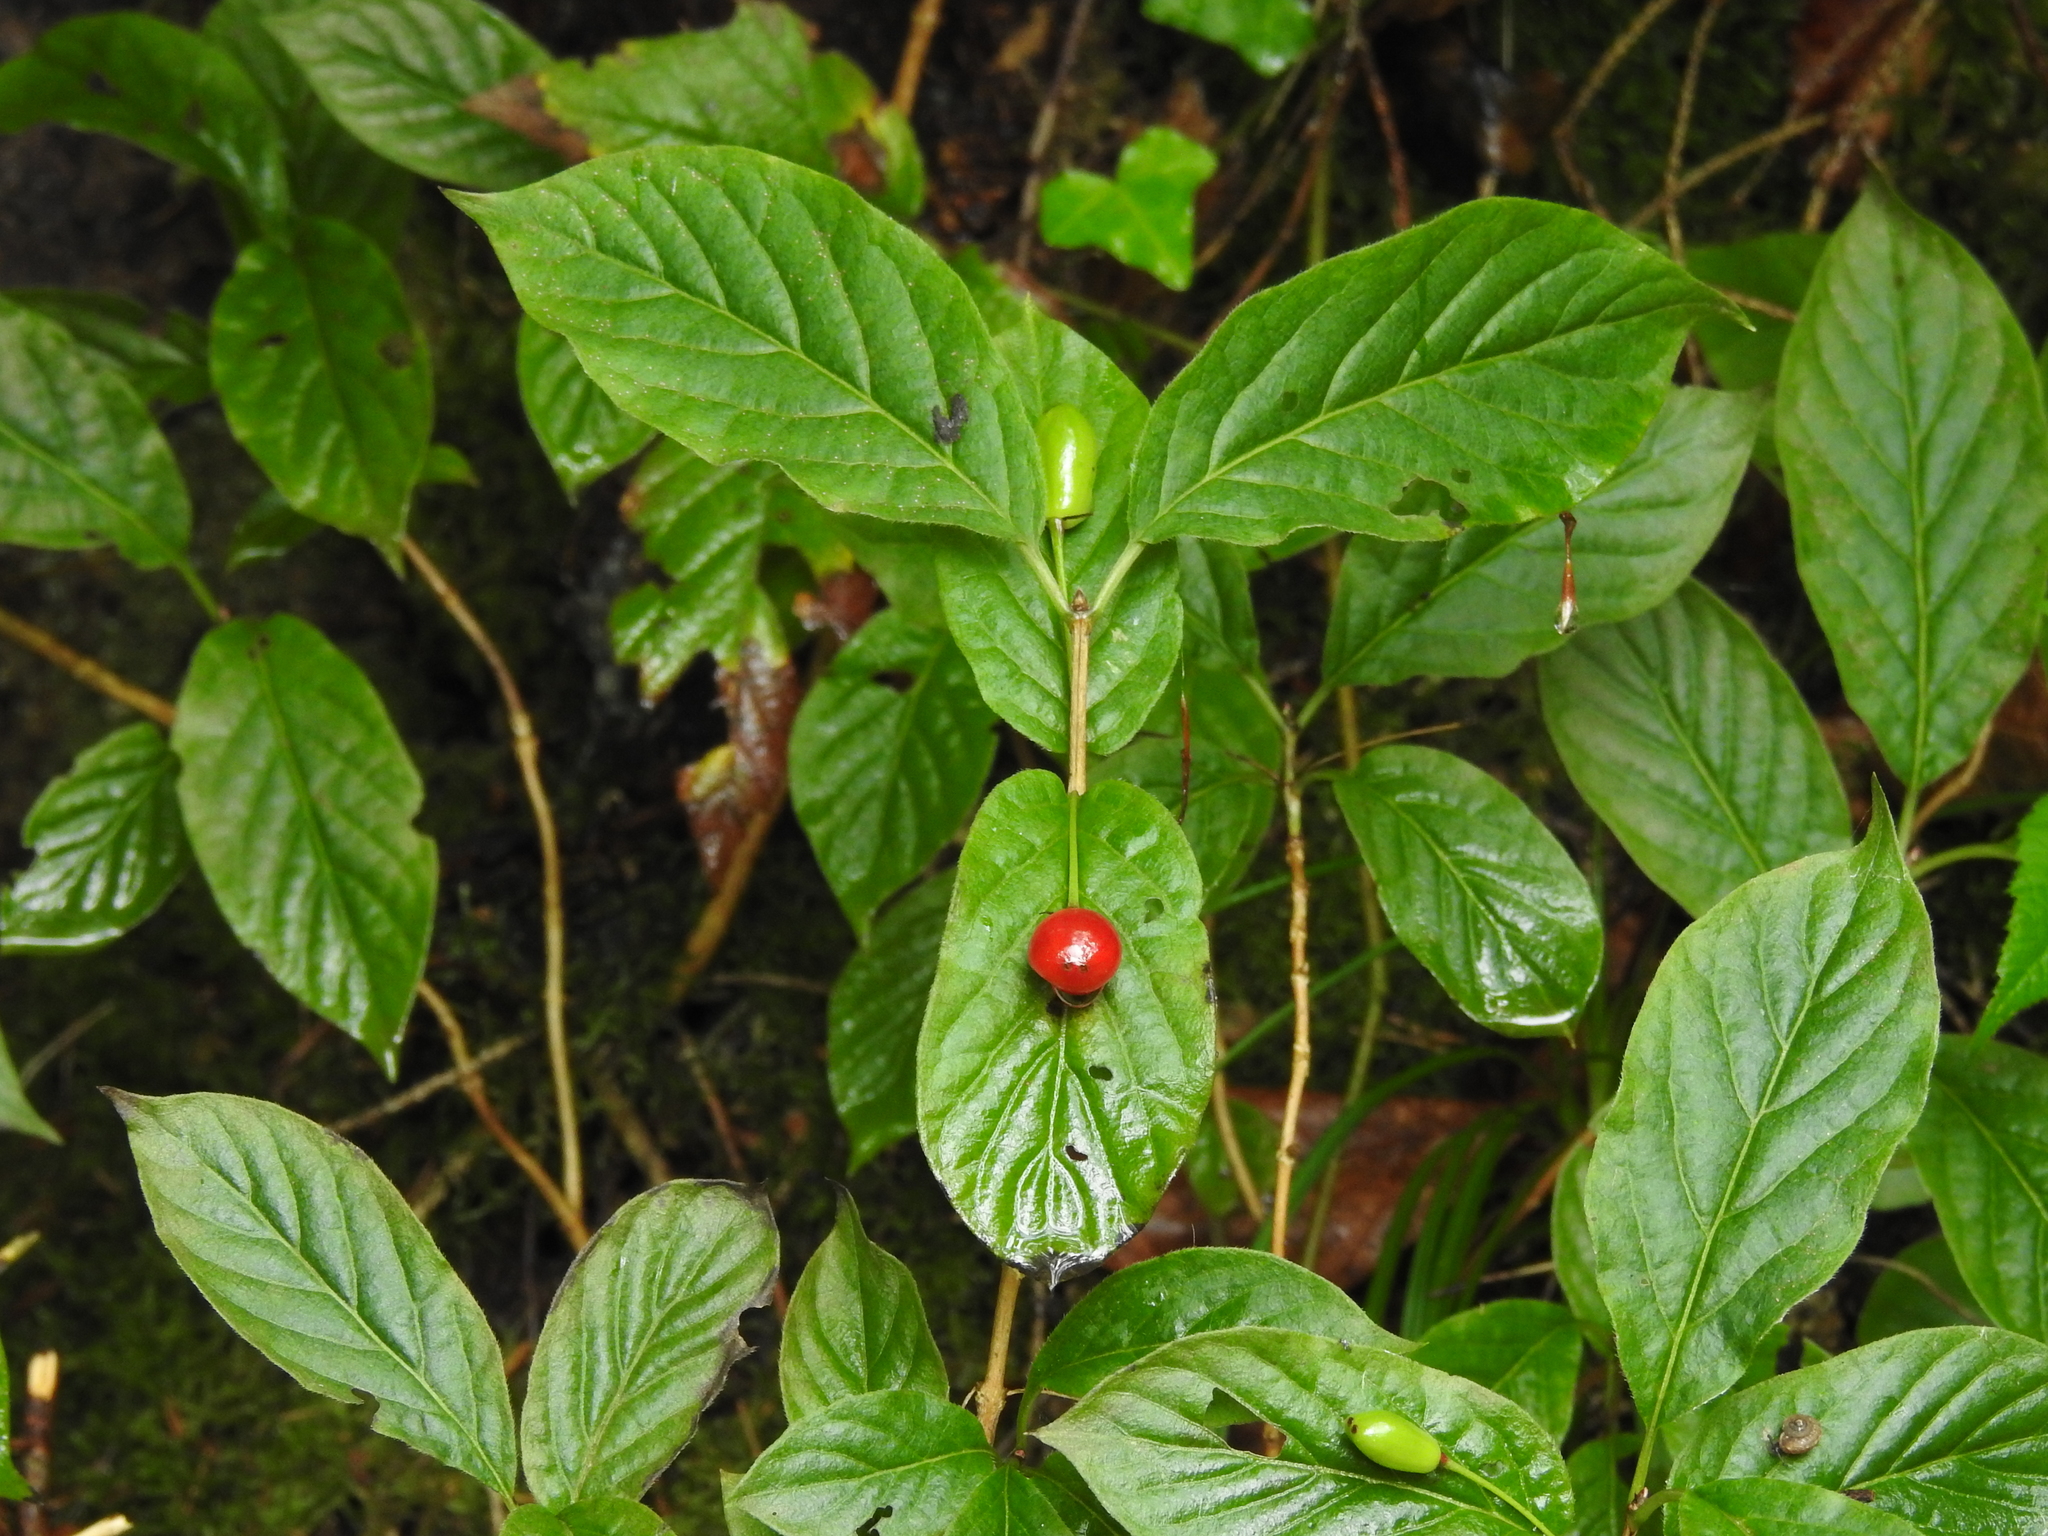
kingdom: Plantae
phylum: Tracheophyta
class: Magnoliopsida
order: Dipsacales
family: Caprifoliaceae
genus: Lonicera
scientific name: Lonicera alpigena
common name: Alpine honeysuckle
